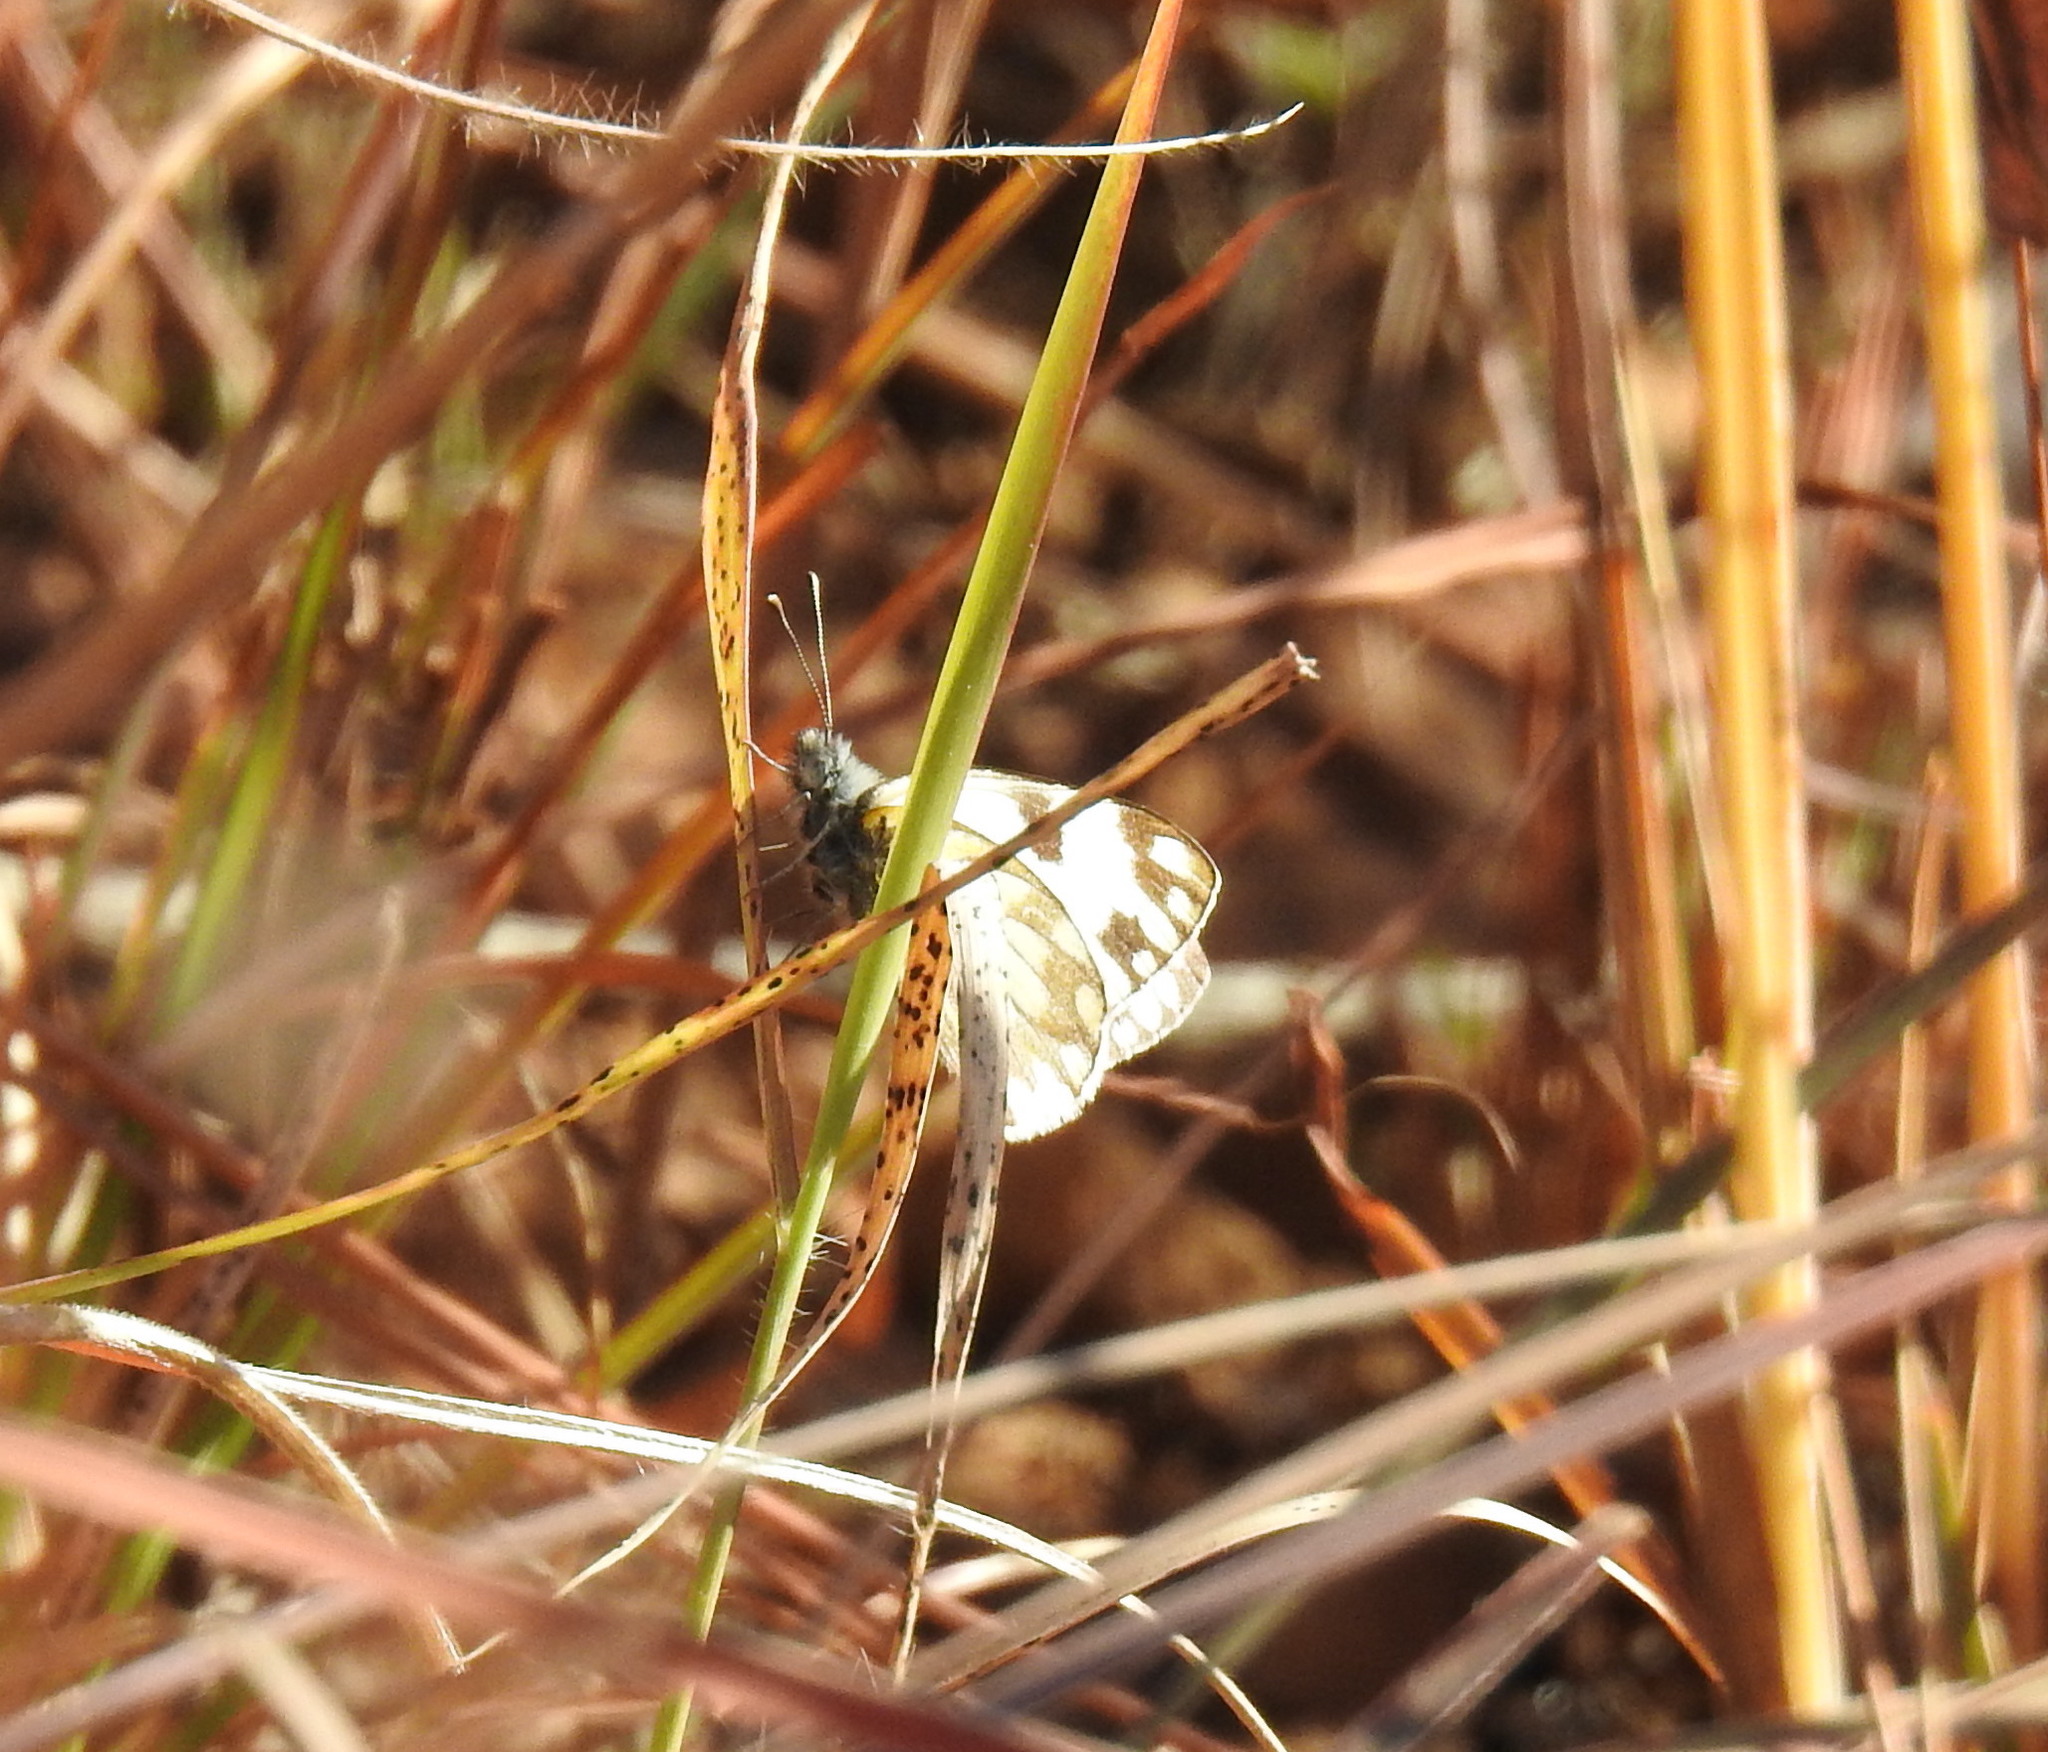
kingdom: Animalia
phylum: Arthropoda
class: Insecta
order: Lepidoptera
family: Pieridae
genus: Pontia
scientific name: Pontia helice
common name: Meadow white
